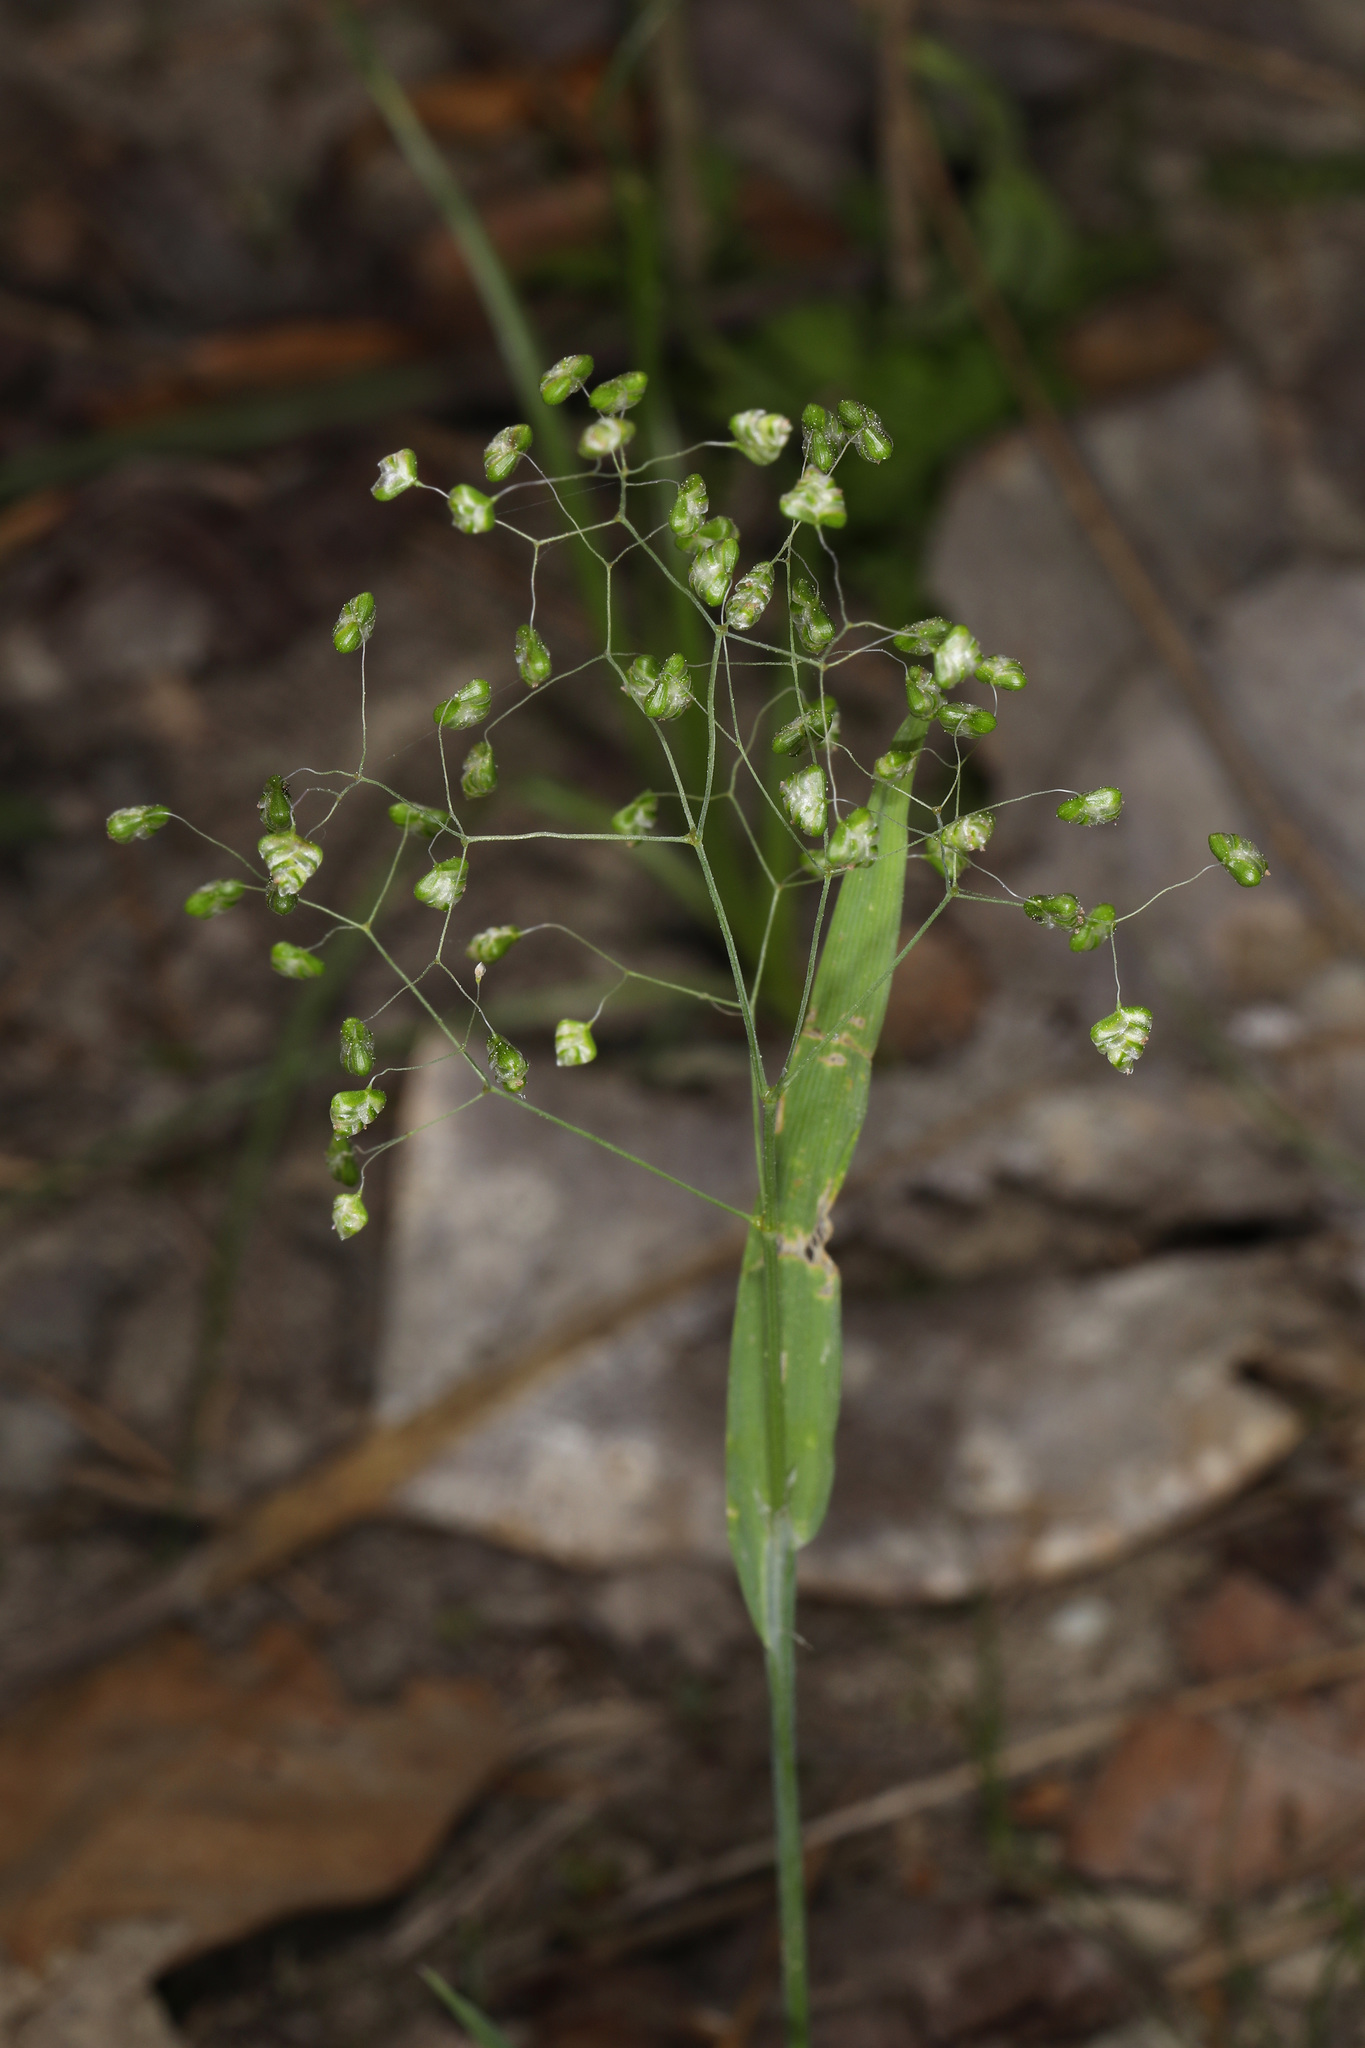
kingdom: Plantae
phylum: Tracheophyta
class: Liliopsida
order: Poales
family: Poaceae
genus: Briza
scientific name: Briza minor
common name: Lesser quaking-grass
